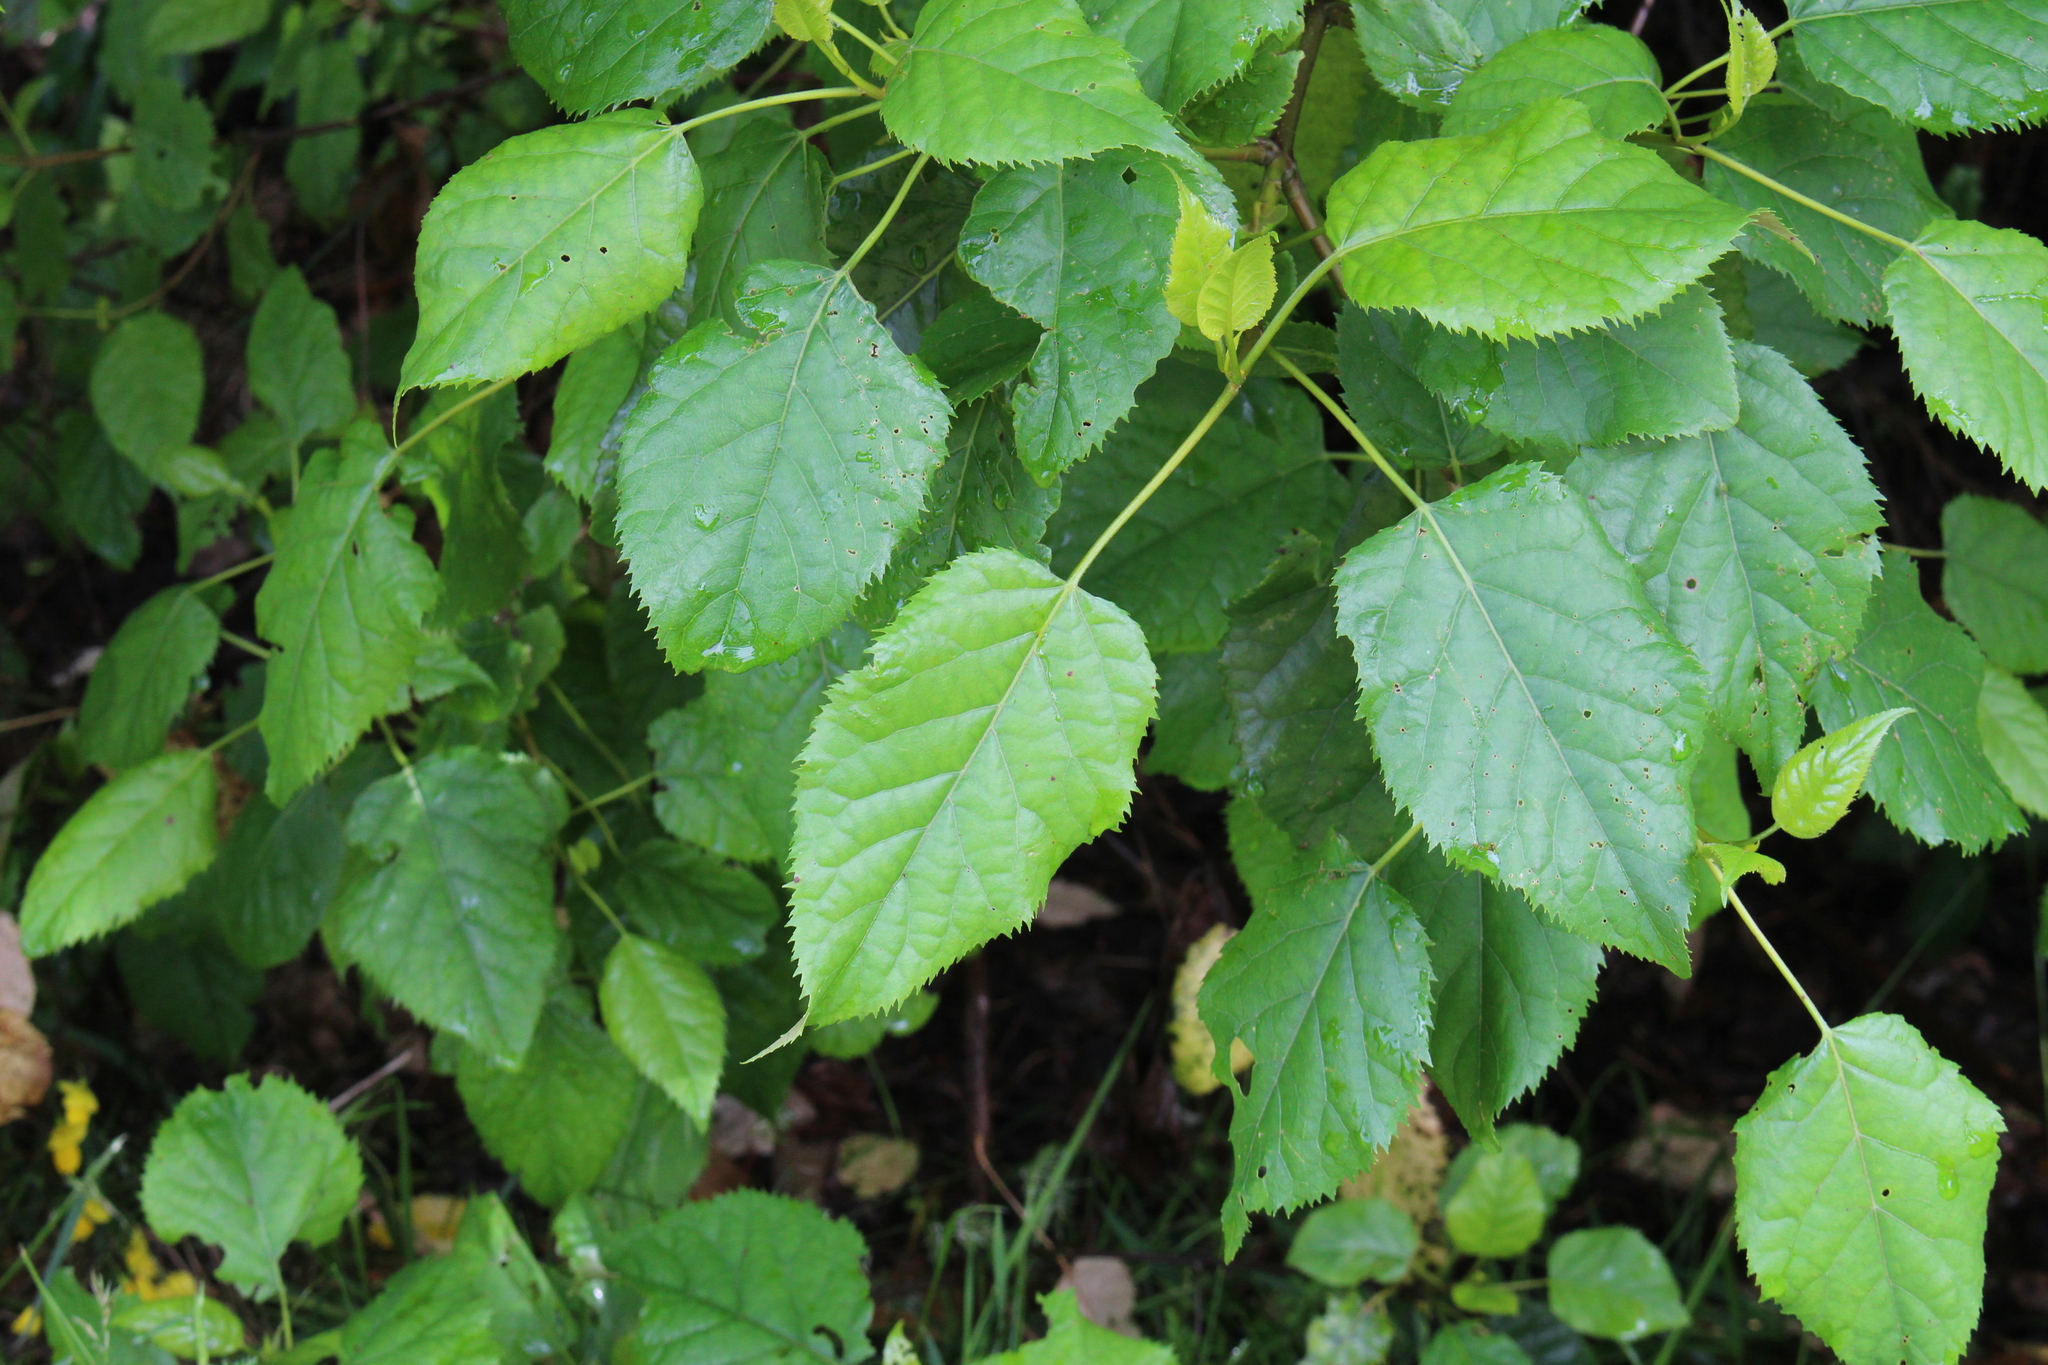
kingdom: Plantae
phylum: Tracheophyta
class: Magnoliopsida
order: Oxalidales
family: Elaeocarpaceae
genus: Aristotelia
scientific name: Aristotelia serrata
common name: New zealand wineberry
